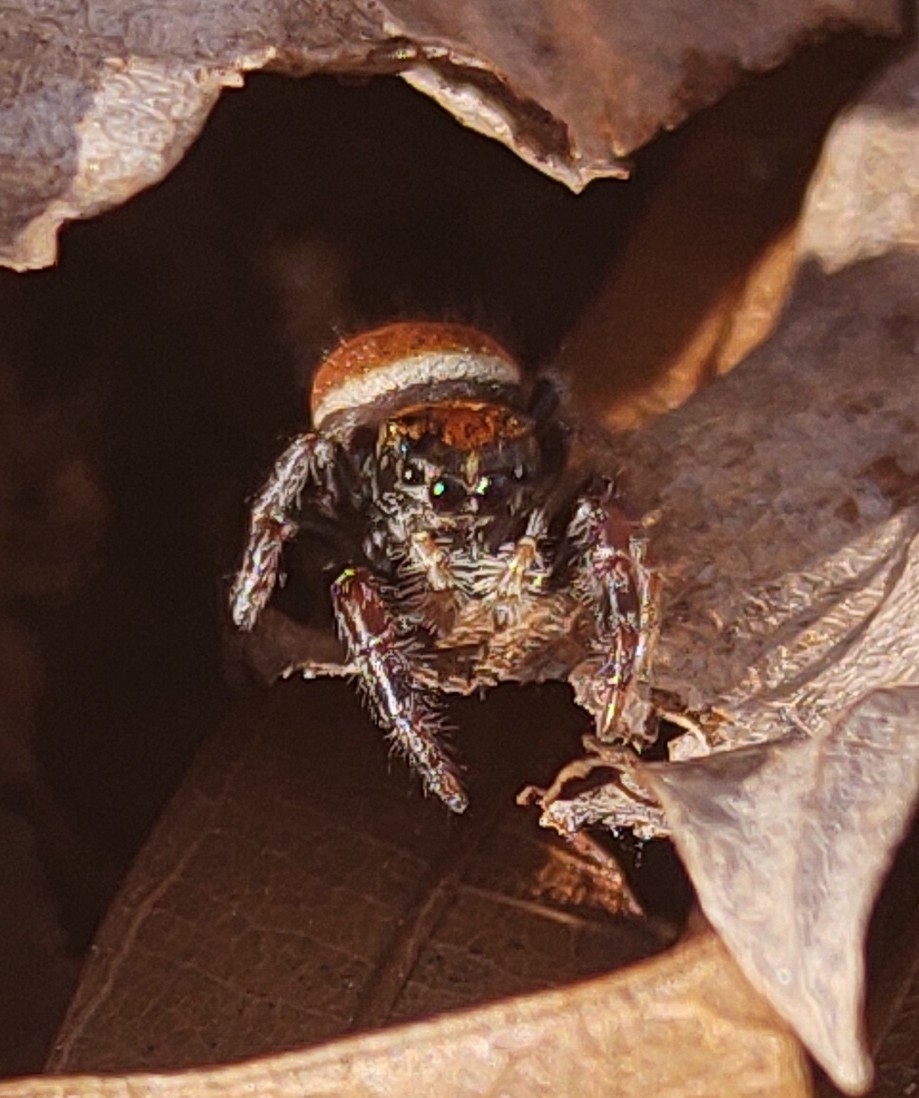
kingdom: Animalia
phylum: Arthropoda
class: Arachnida
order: Araneae
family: Salticidae
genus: Phidippus
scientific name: Phidippus whitmani
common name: Whitman's jumping spider
